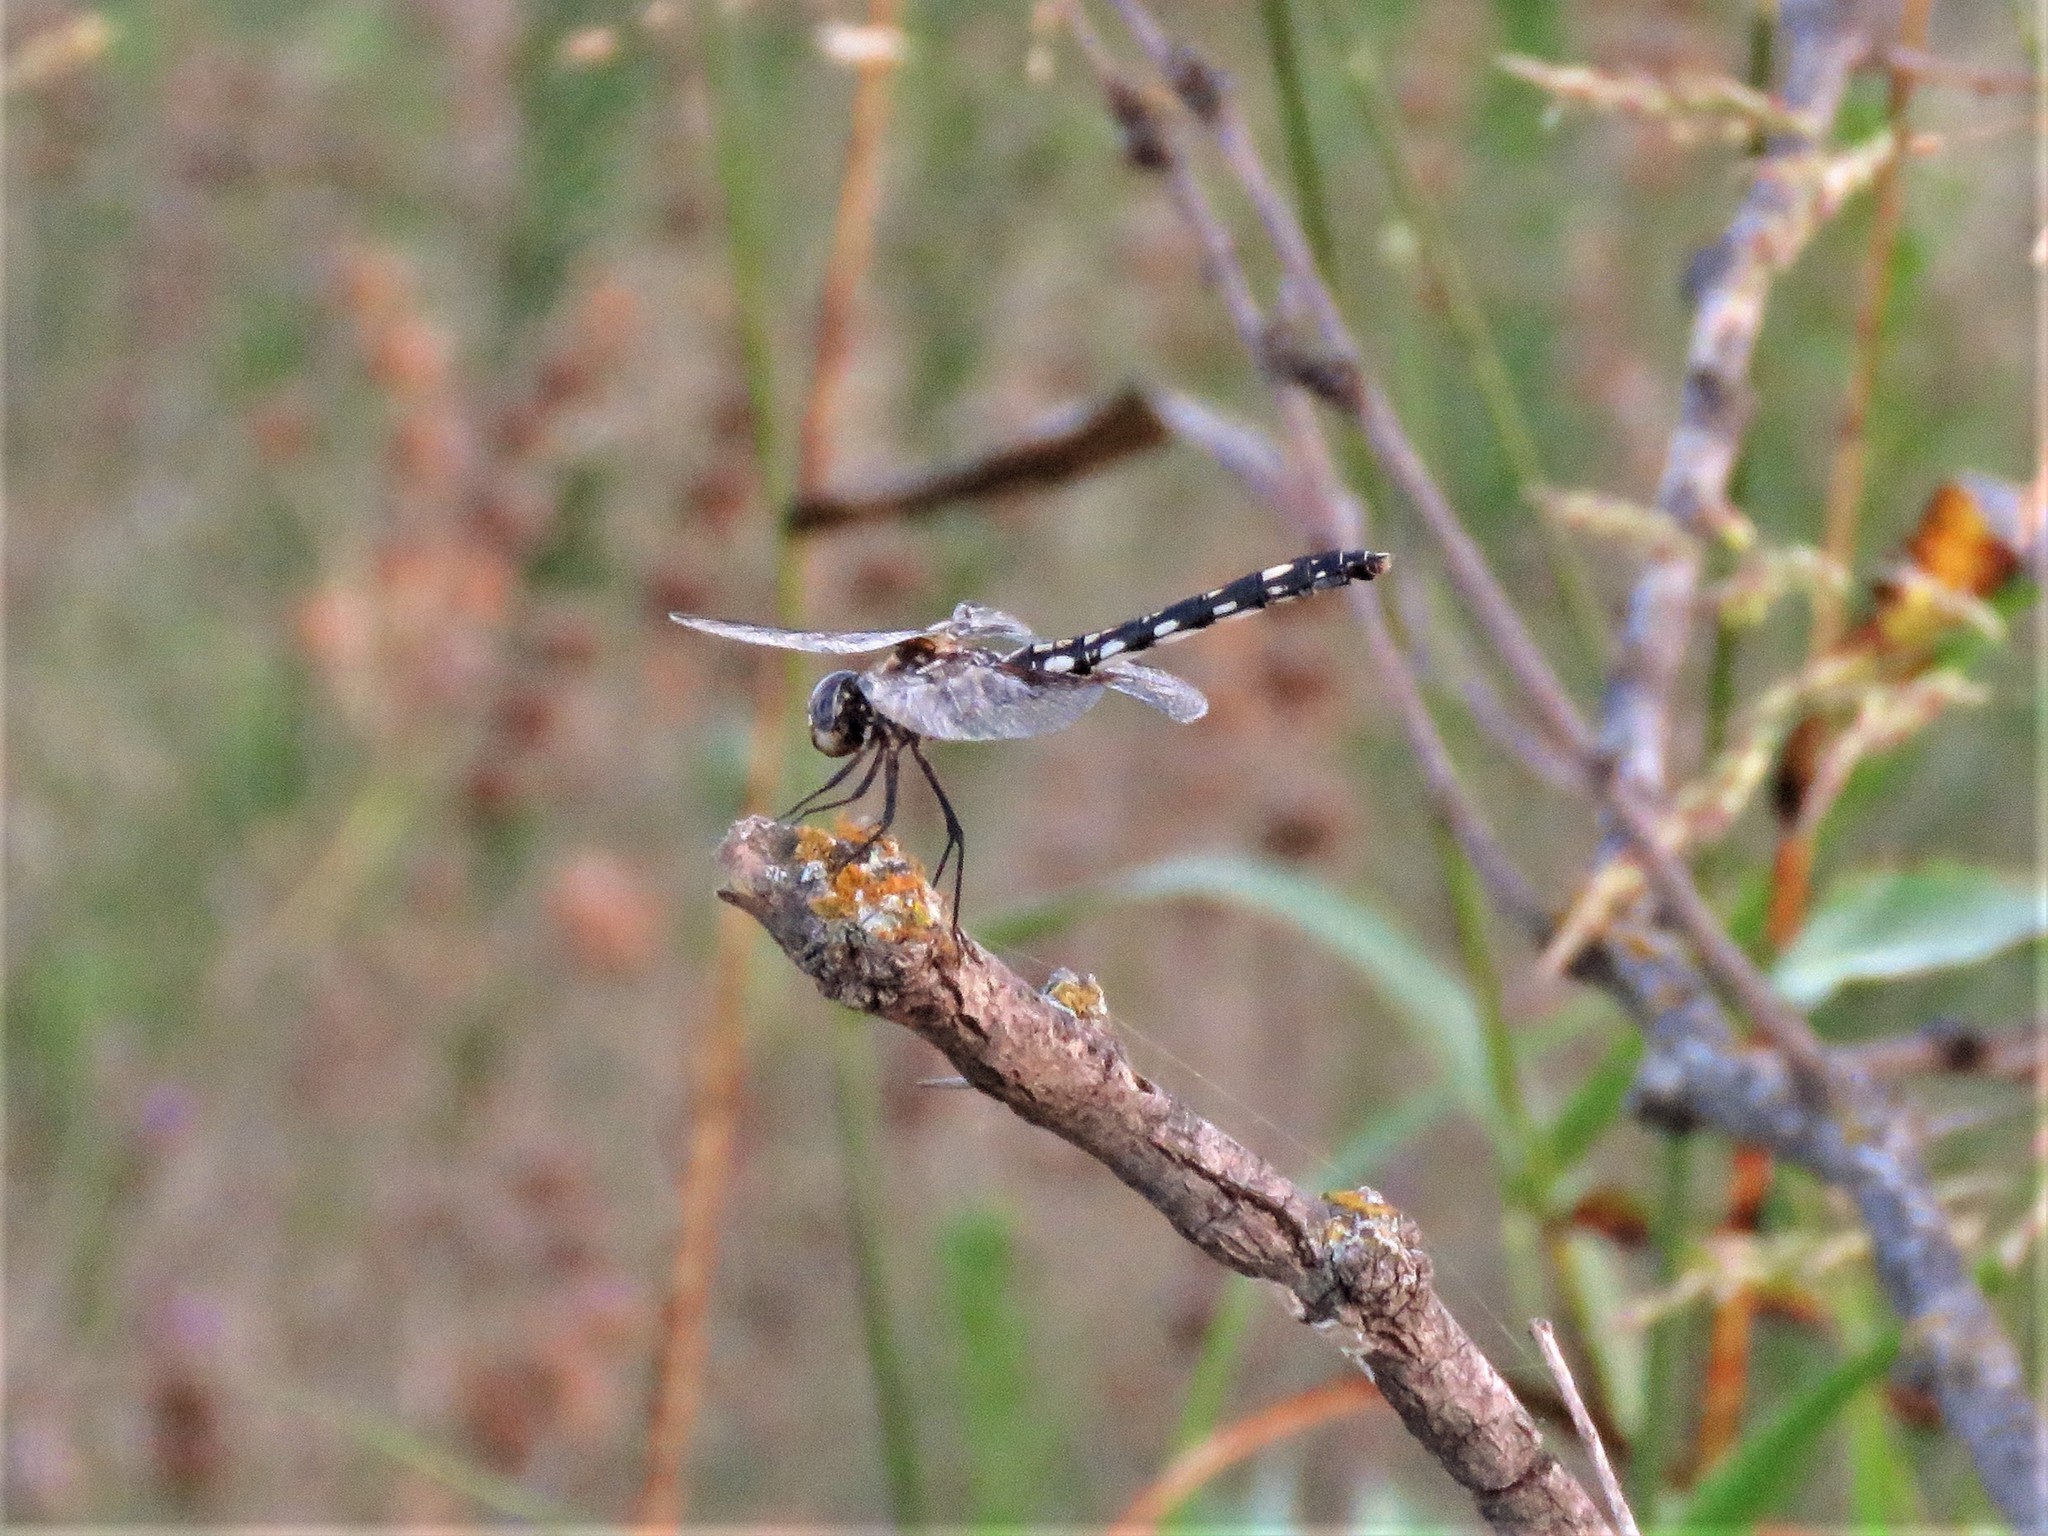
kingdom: Animalia
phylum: Arthropoda
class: Insecta
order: Odonata
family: Libellulidae
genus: Dythemis
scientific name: Dythemis fugax
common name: Checkered setwing
